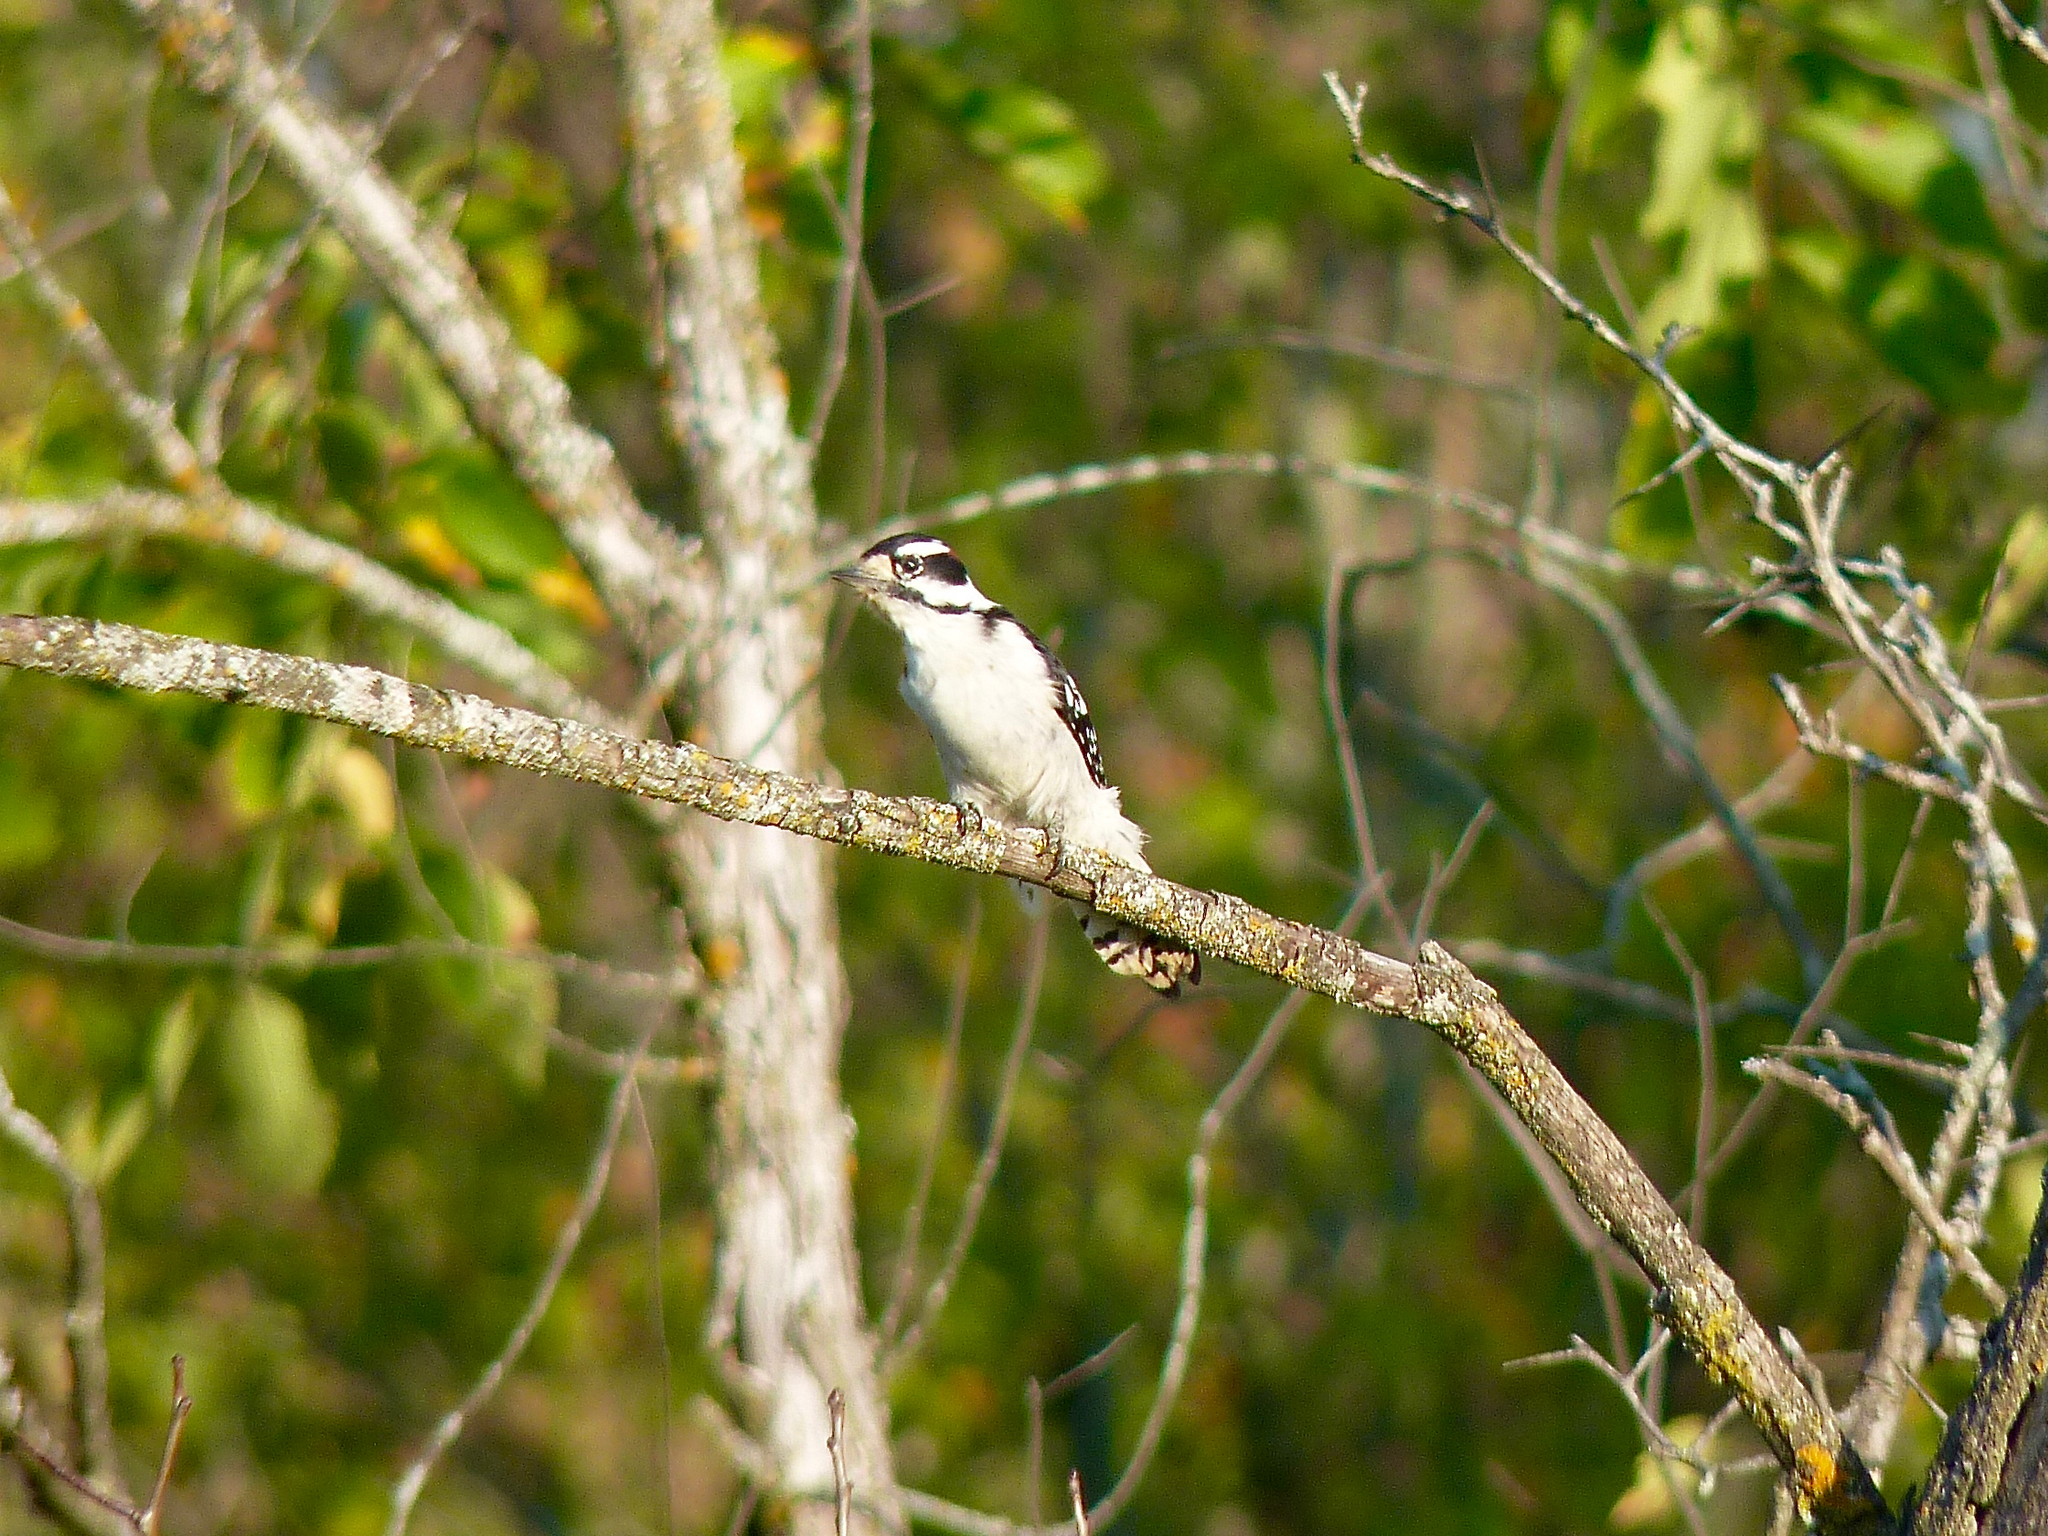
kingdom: Animalia
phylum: Chordata
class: Aves
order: Piciformes
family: Picidae
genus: Dryobates
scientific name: Dryobates pubescens
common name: Downy woodpecker
